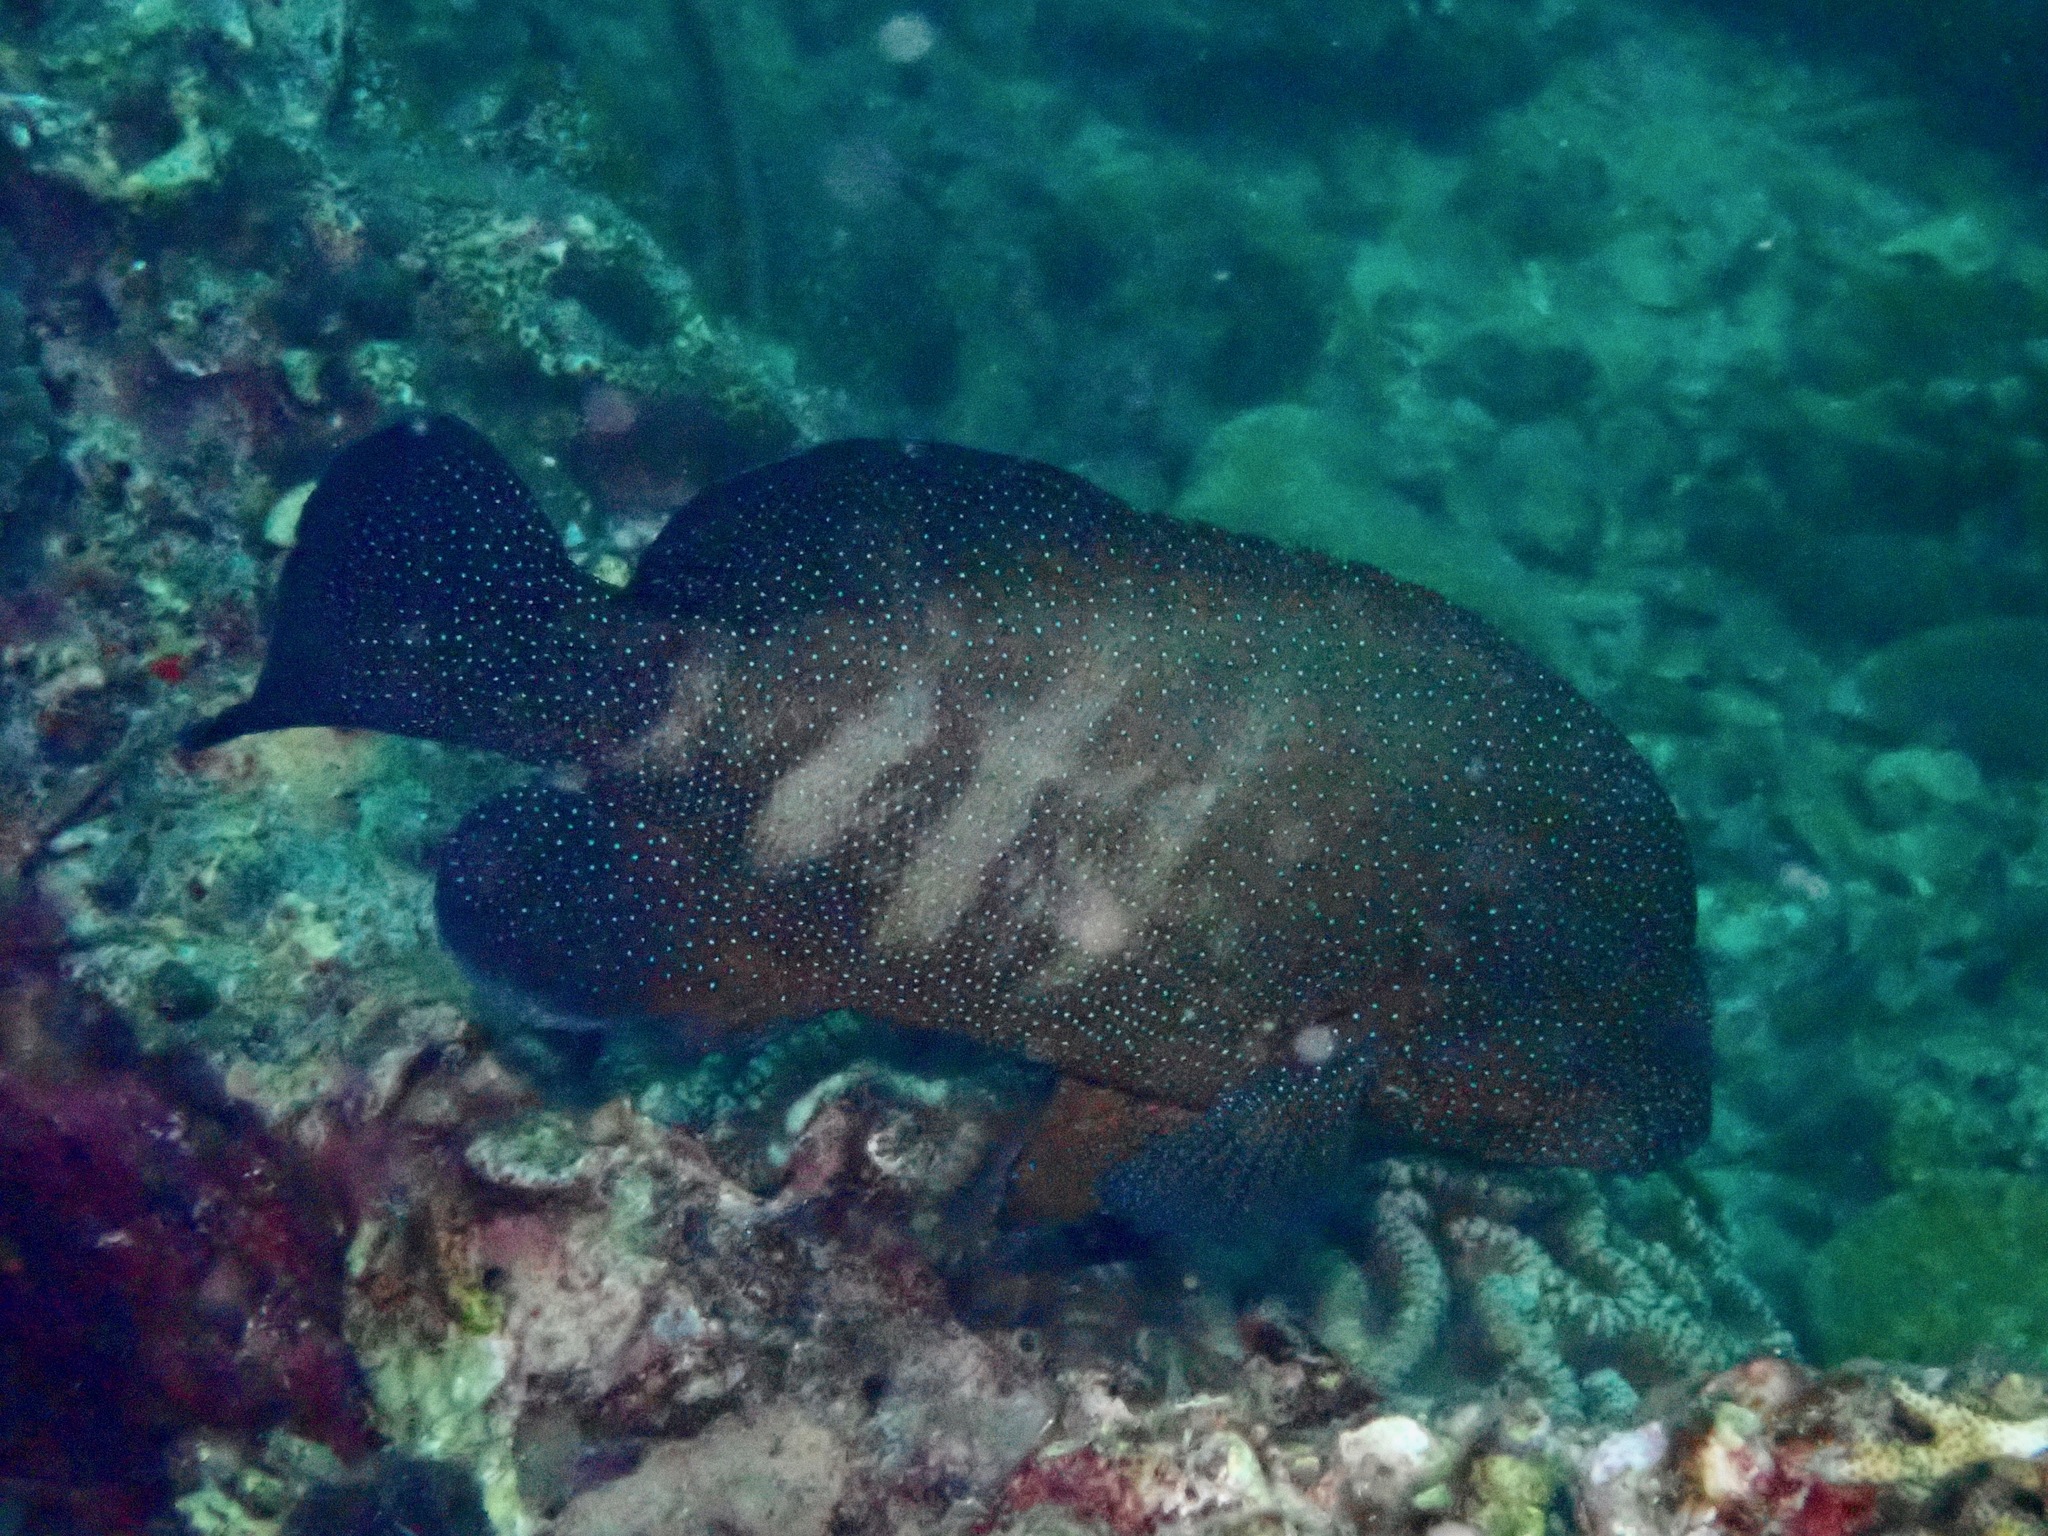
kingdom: Animalia
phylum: Chordata
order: Perciformes
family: Serranidae
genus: Cephalopholis
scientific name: Cephalopholis polyspila
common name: Starry grouper
